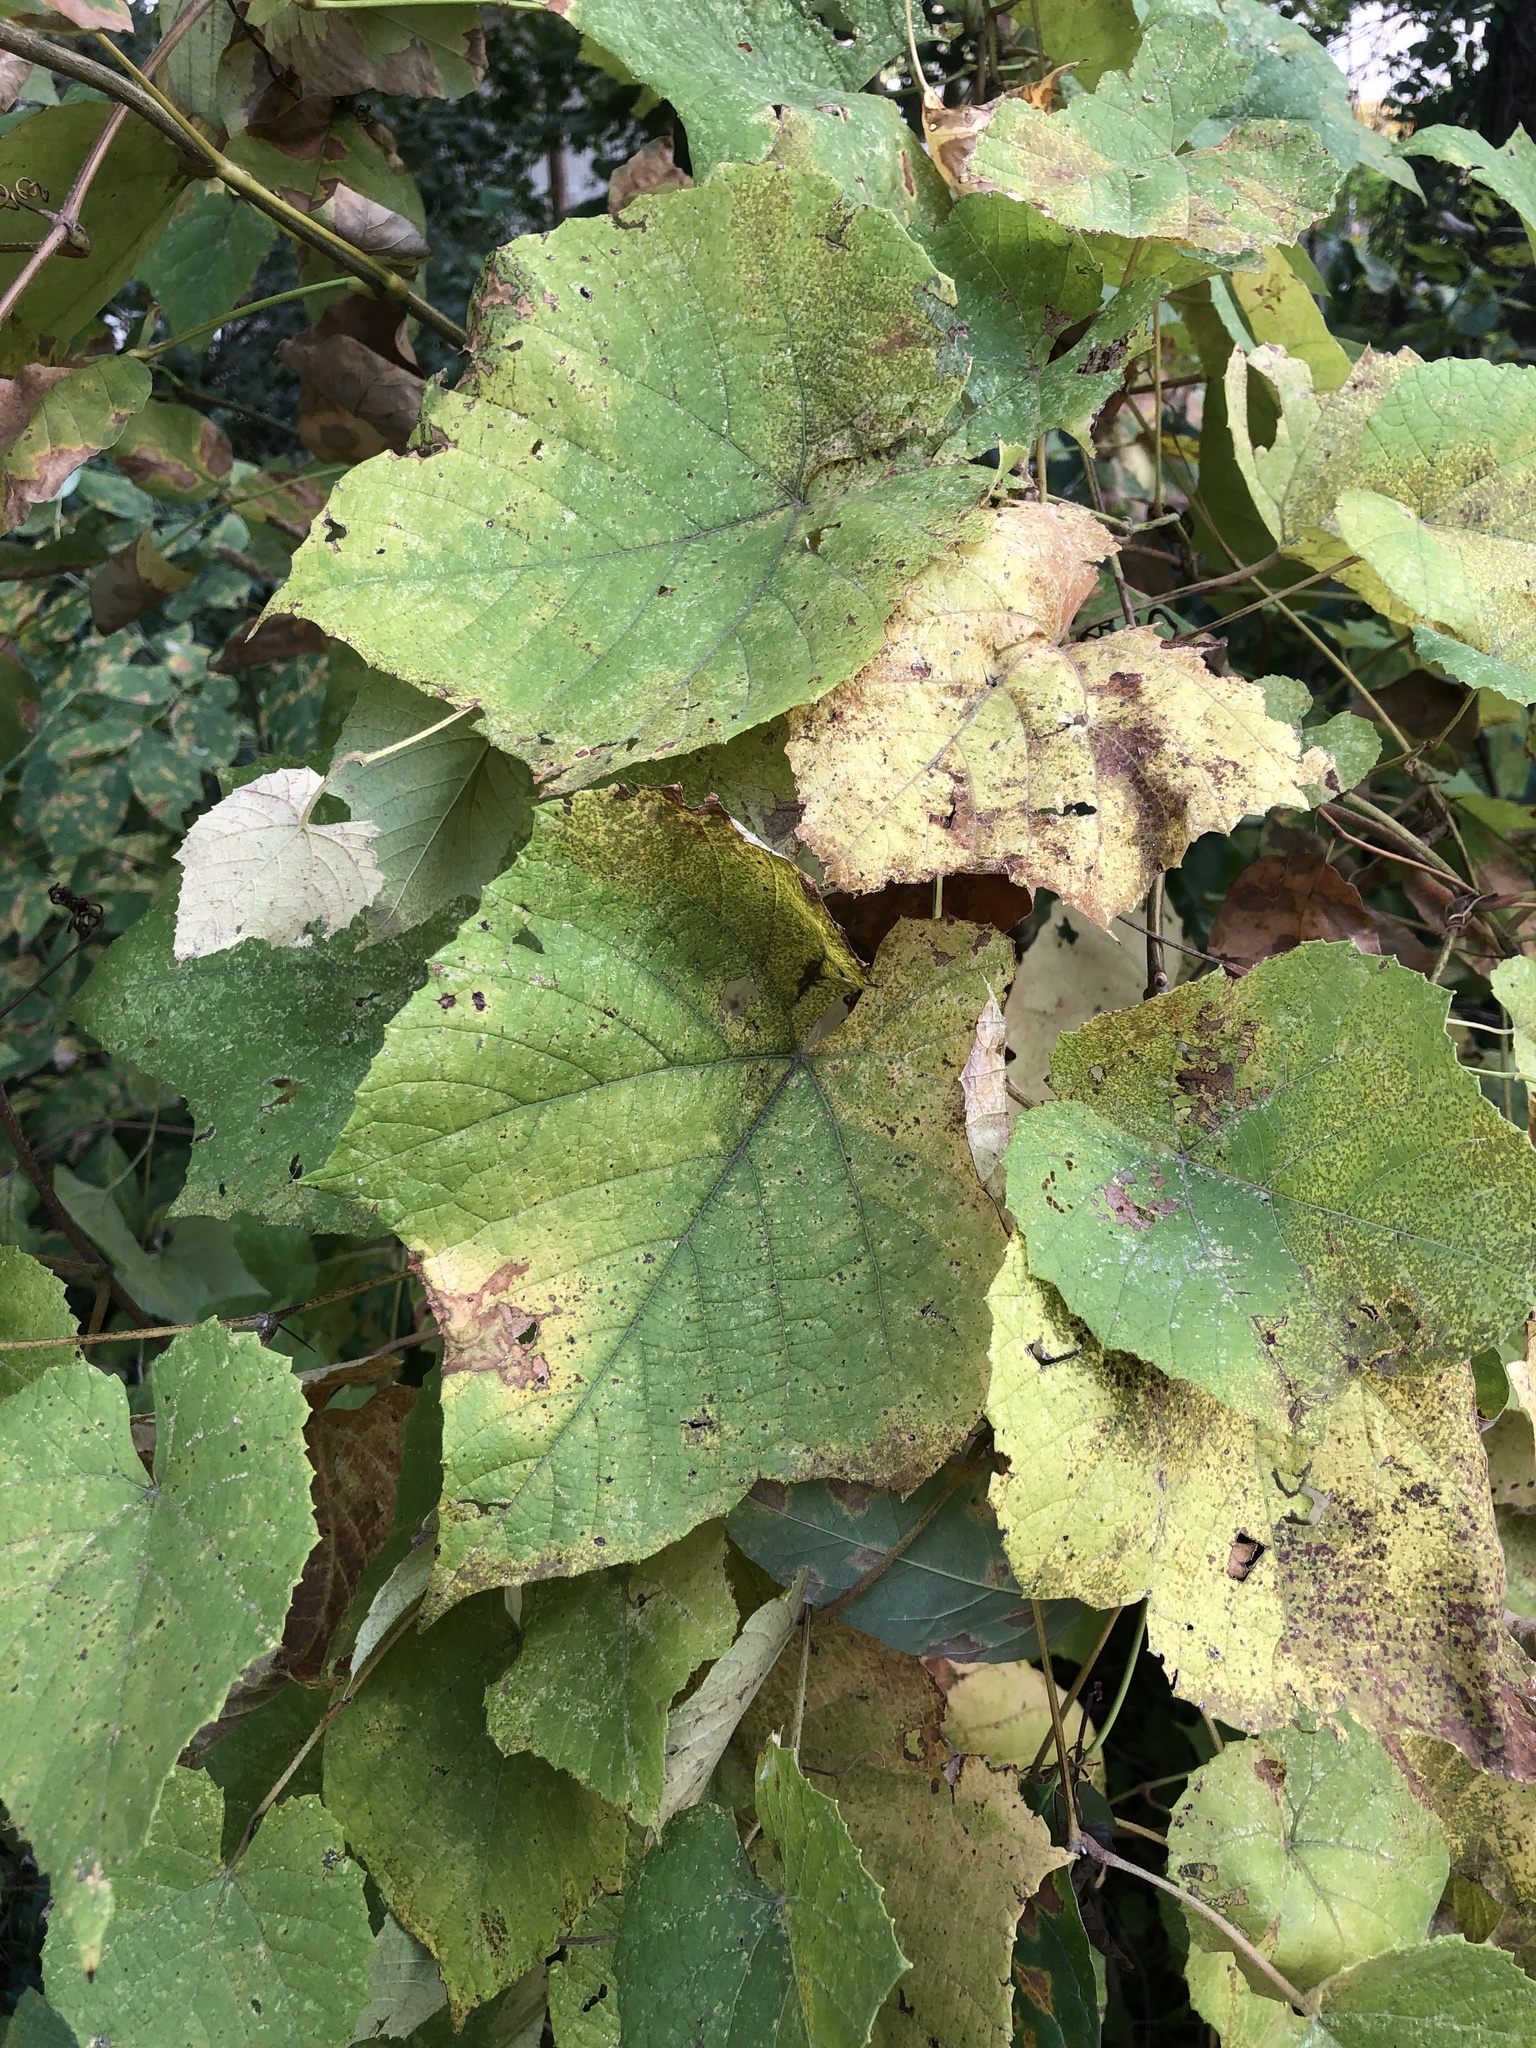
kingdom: Plantae
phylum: Tracheophyta
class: Magnoliopsida
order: Vitales
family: Vitaceae
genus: Vitis
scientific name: Vitis cinerea
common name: Ashy grape
